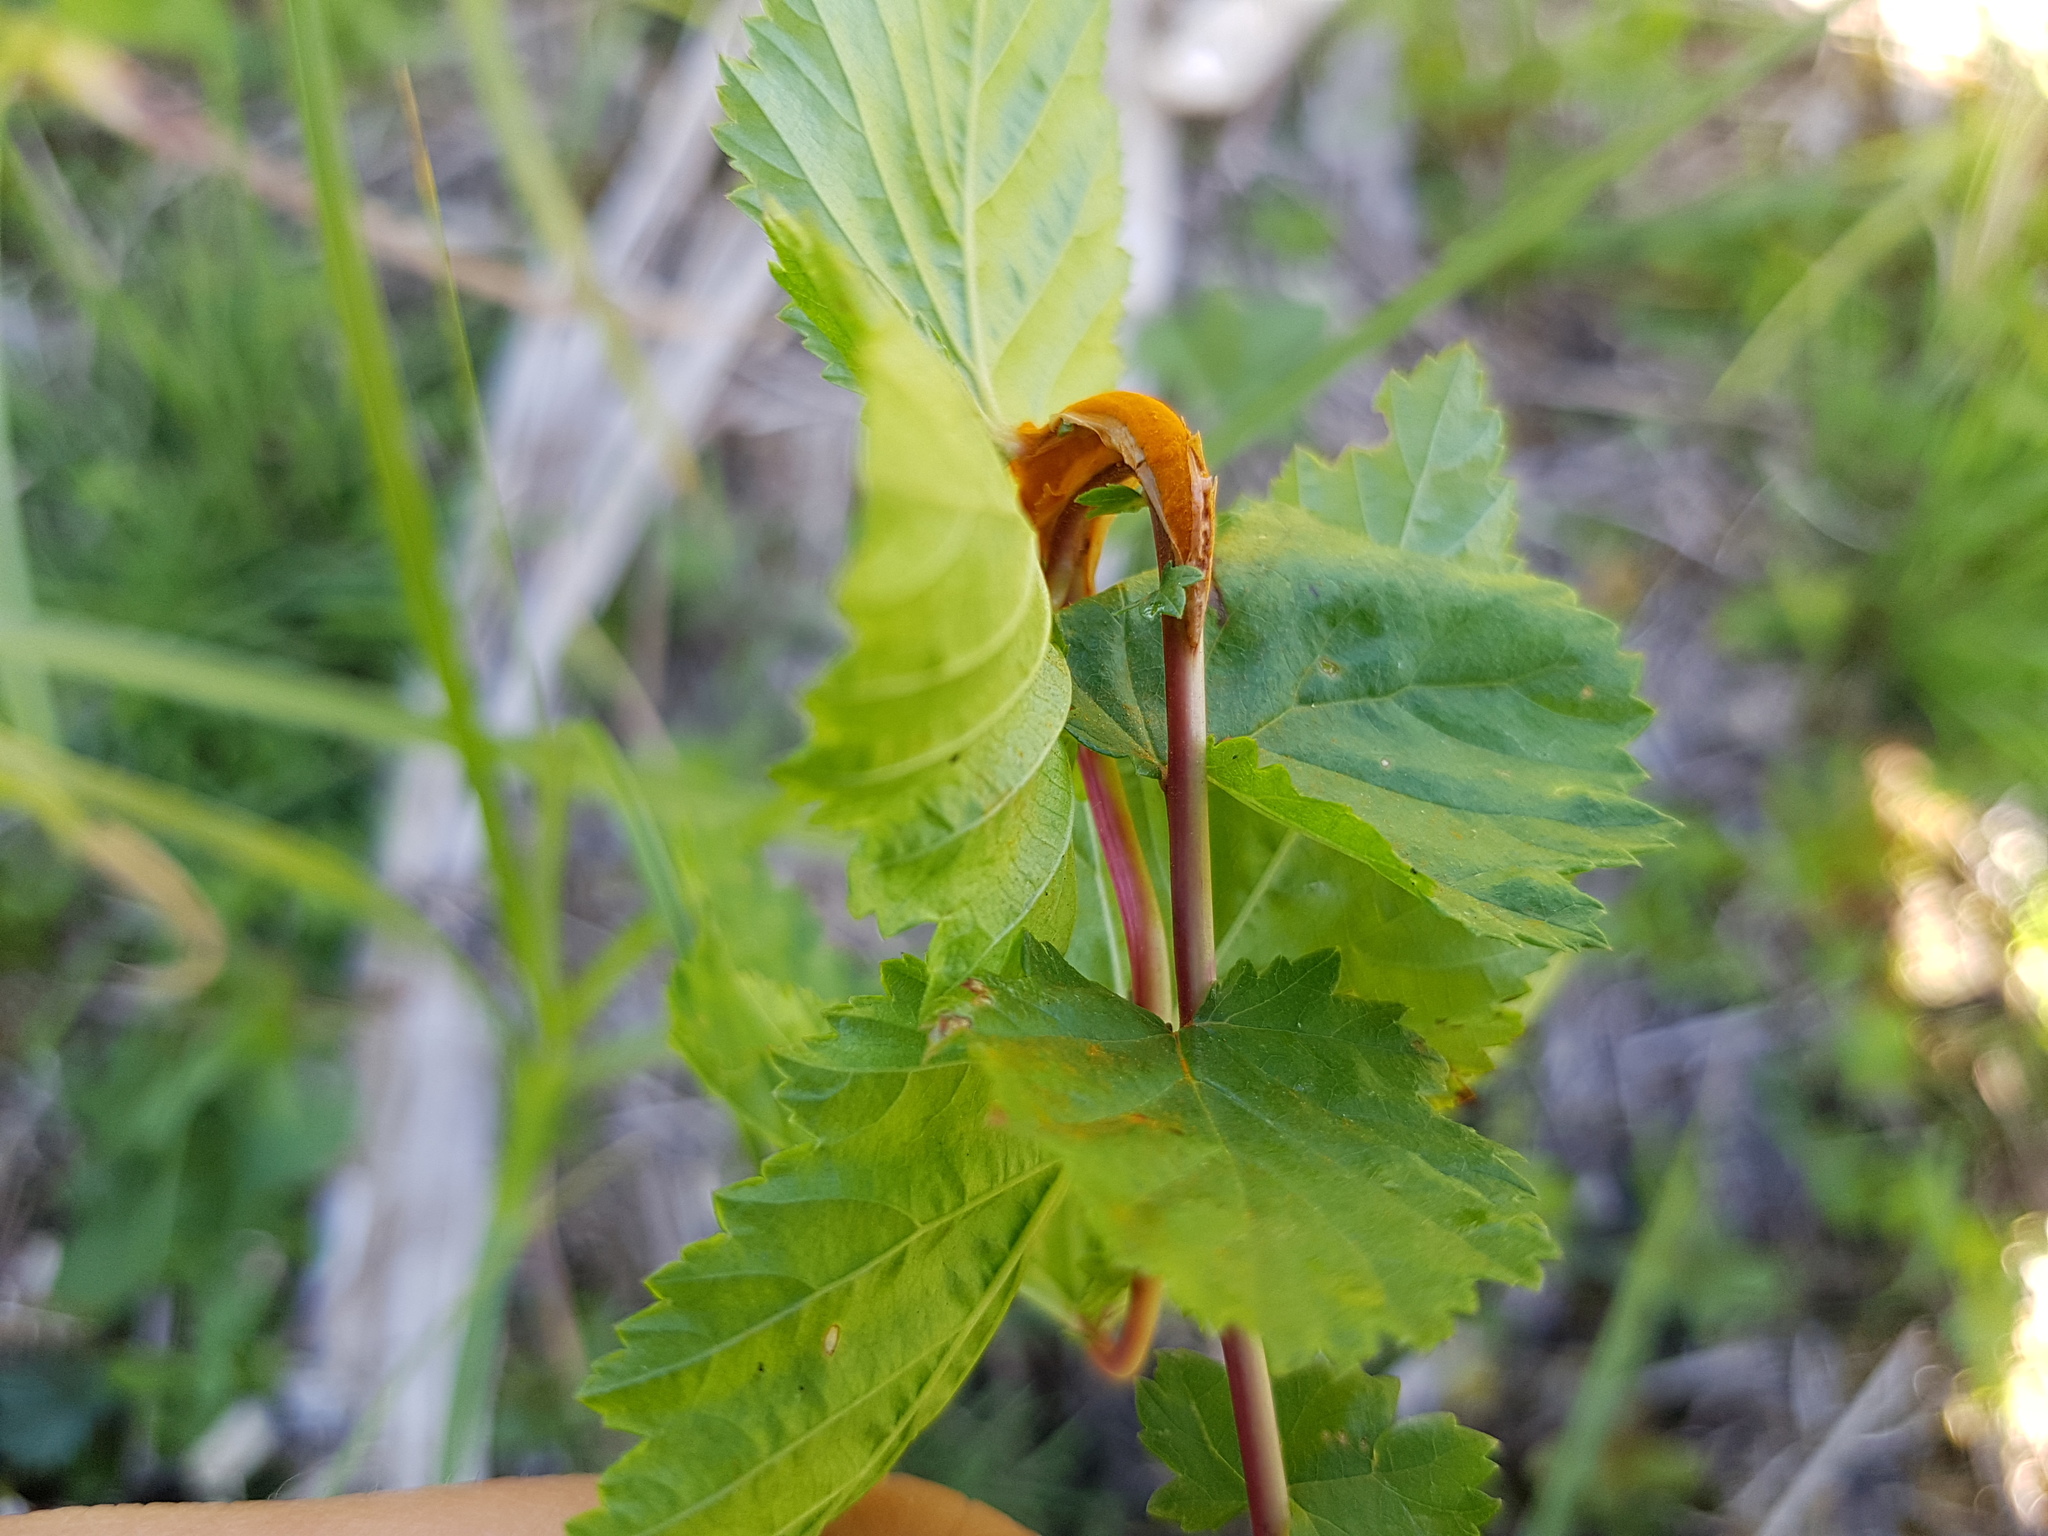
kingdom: Fungi
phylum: Basidiomycota
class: Pucciniomycetes
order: Pucciniales
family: Raveneliaceae
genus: Triphragmium
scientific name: Triphragmium ulmariae
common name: Meadowsweet rust
